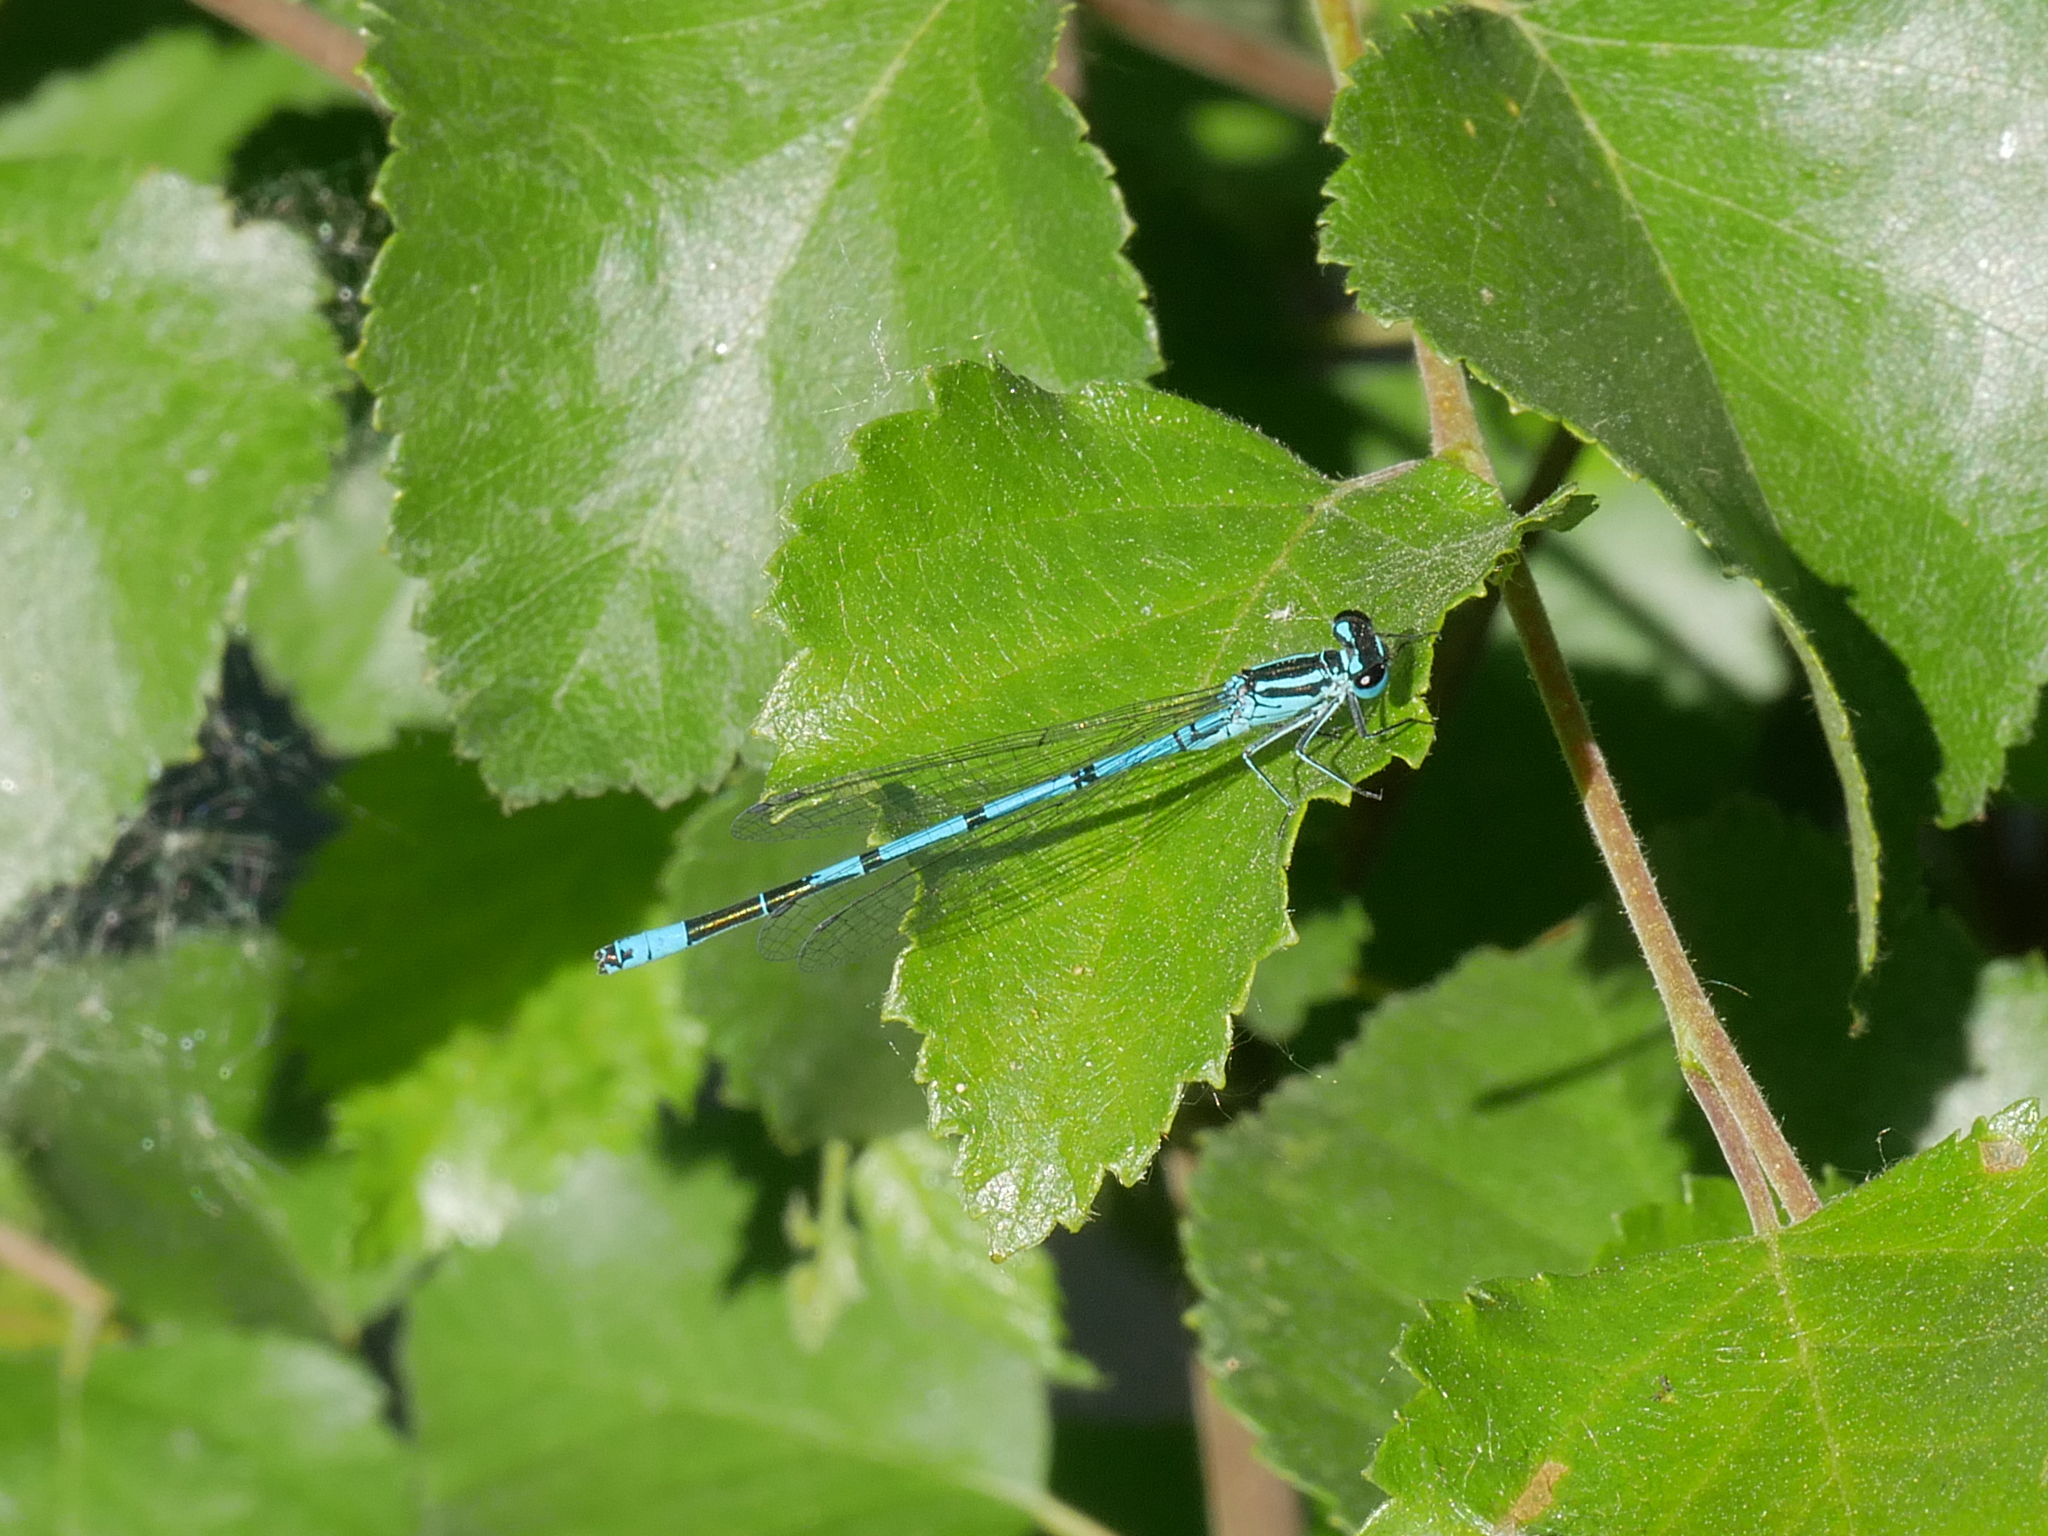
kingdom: Animalia
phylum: Arthropoda
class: Insecta
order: Odonata
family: Coenagrionidae
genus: Coenagrion
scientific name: Coenagrion puella
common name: Azure damselfly
